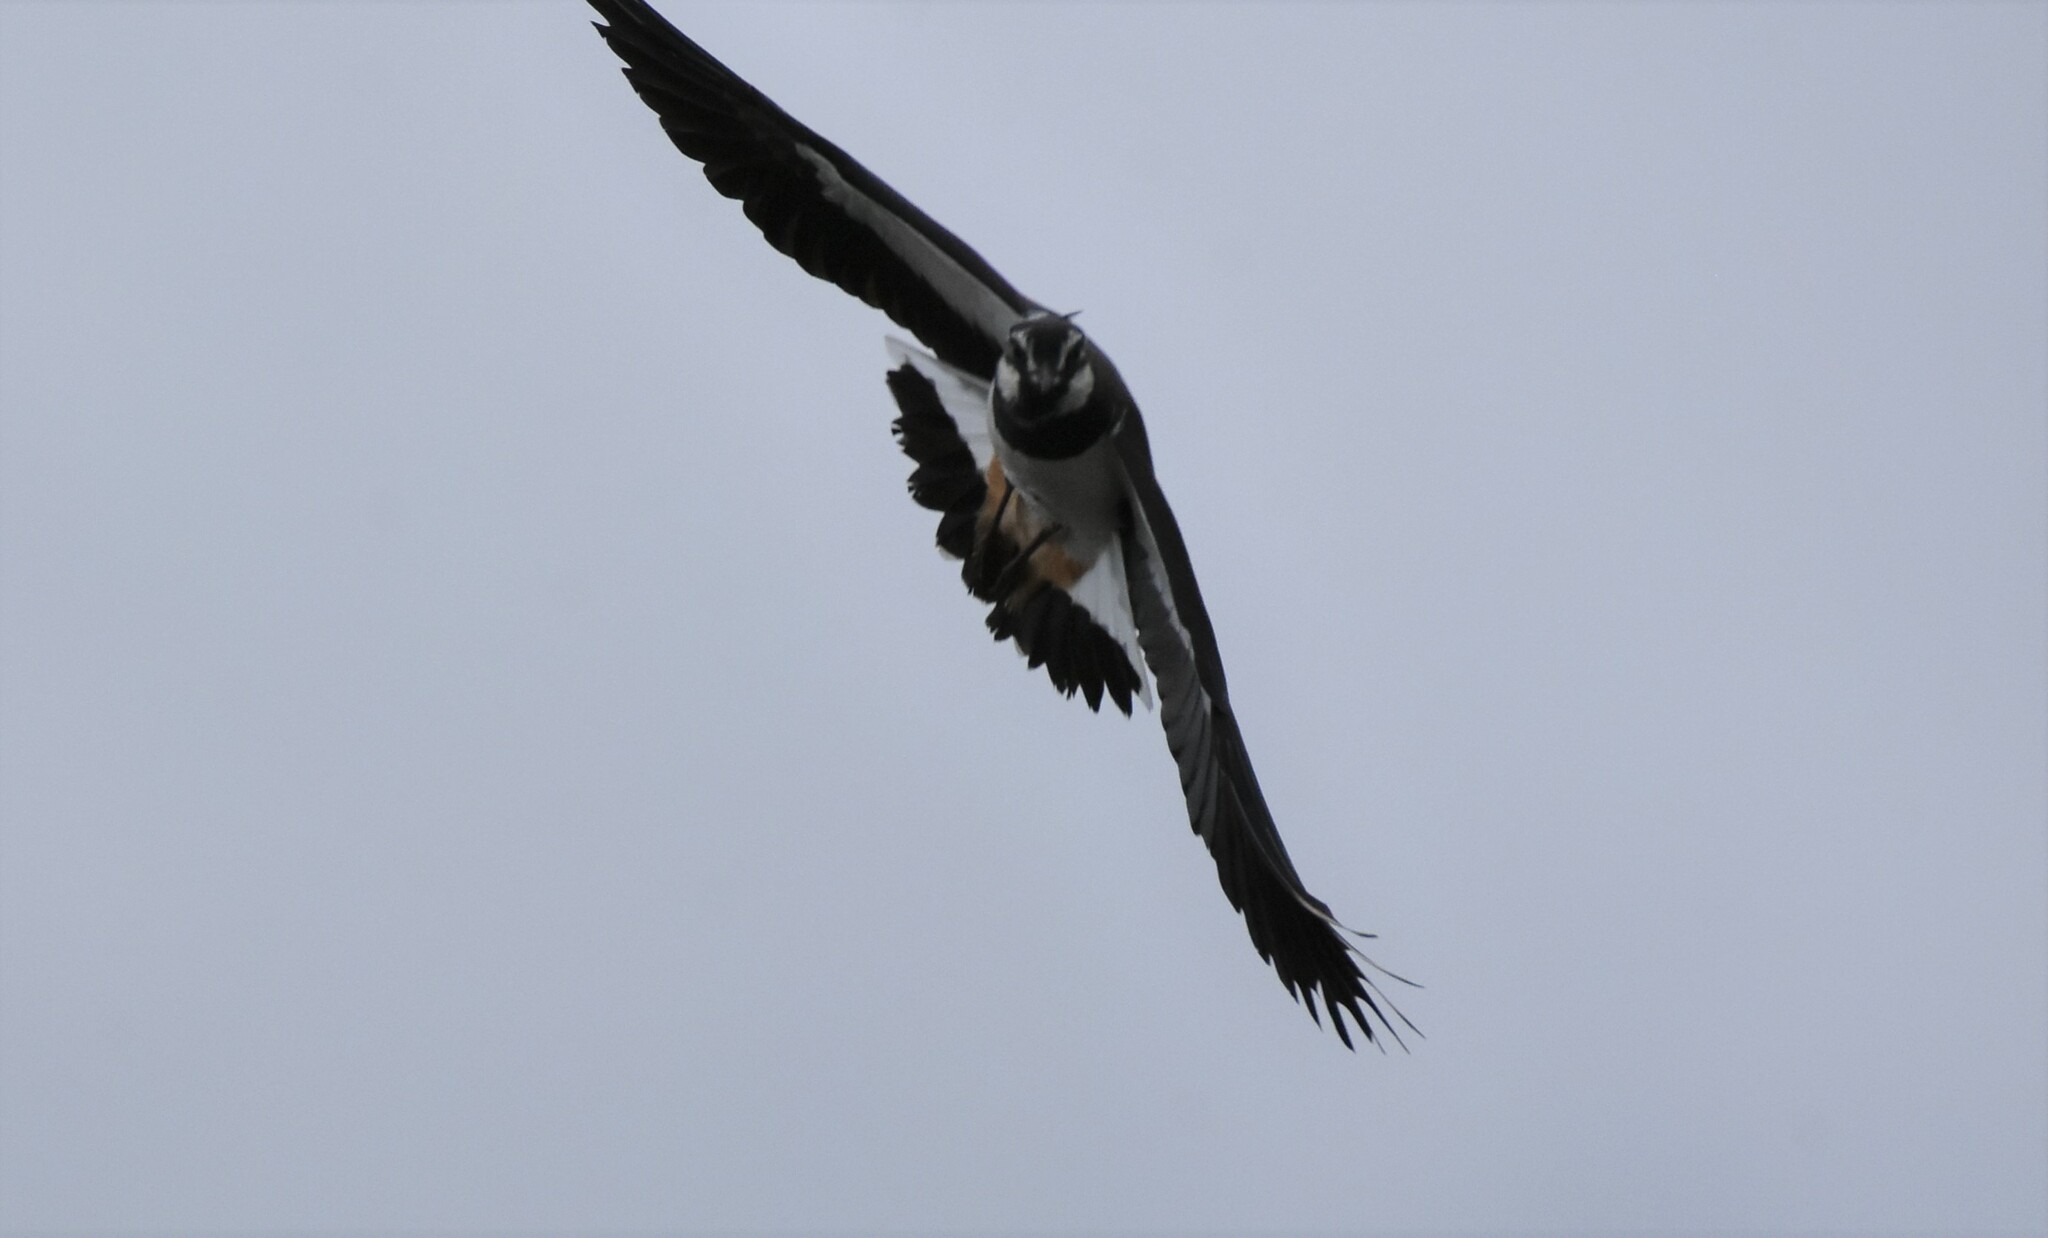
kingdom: Animalia
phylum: Chordata
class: Aves
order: Charadriiformes
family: Charadriidae
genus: Vanellus
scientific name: Vanellus vanellus
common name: Northern lapwing
